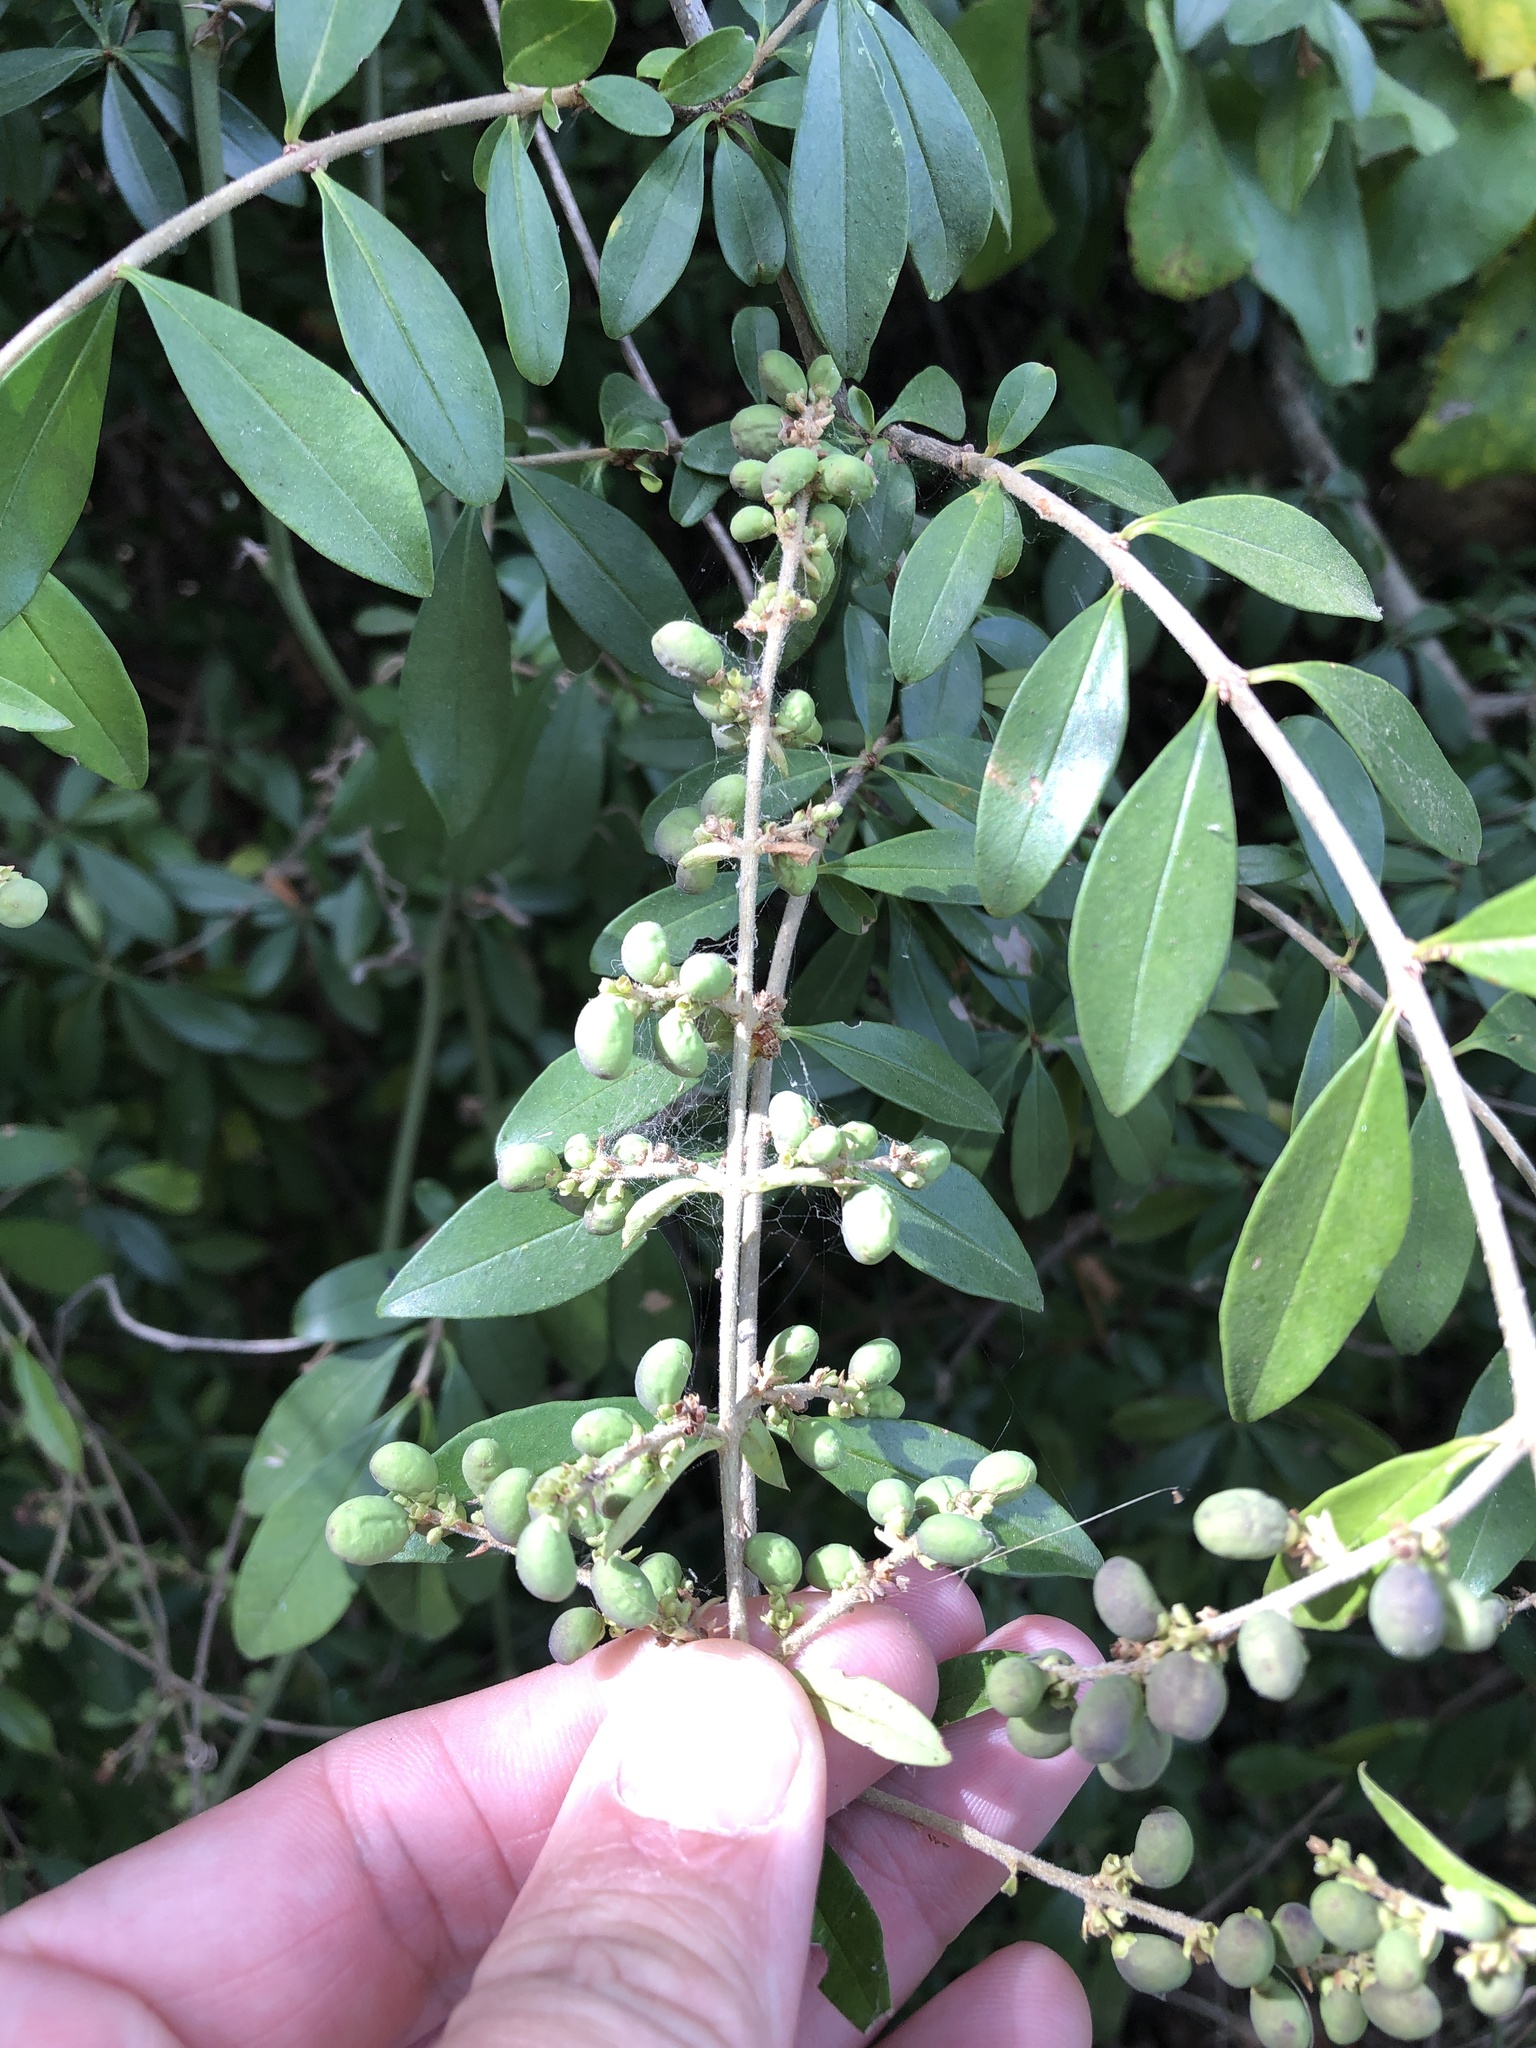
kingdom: Plantae
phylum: Tracheophyta
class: Magnoliopsida
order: Lamiales
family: Oleaceae
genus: Ligustrum
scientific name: Ligustrum quihoui
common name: Waxyleaf privet
